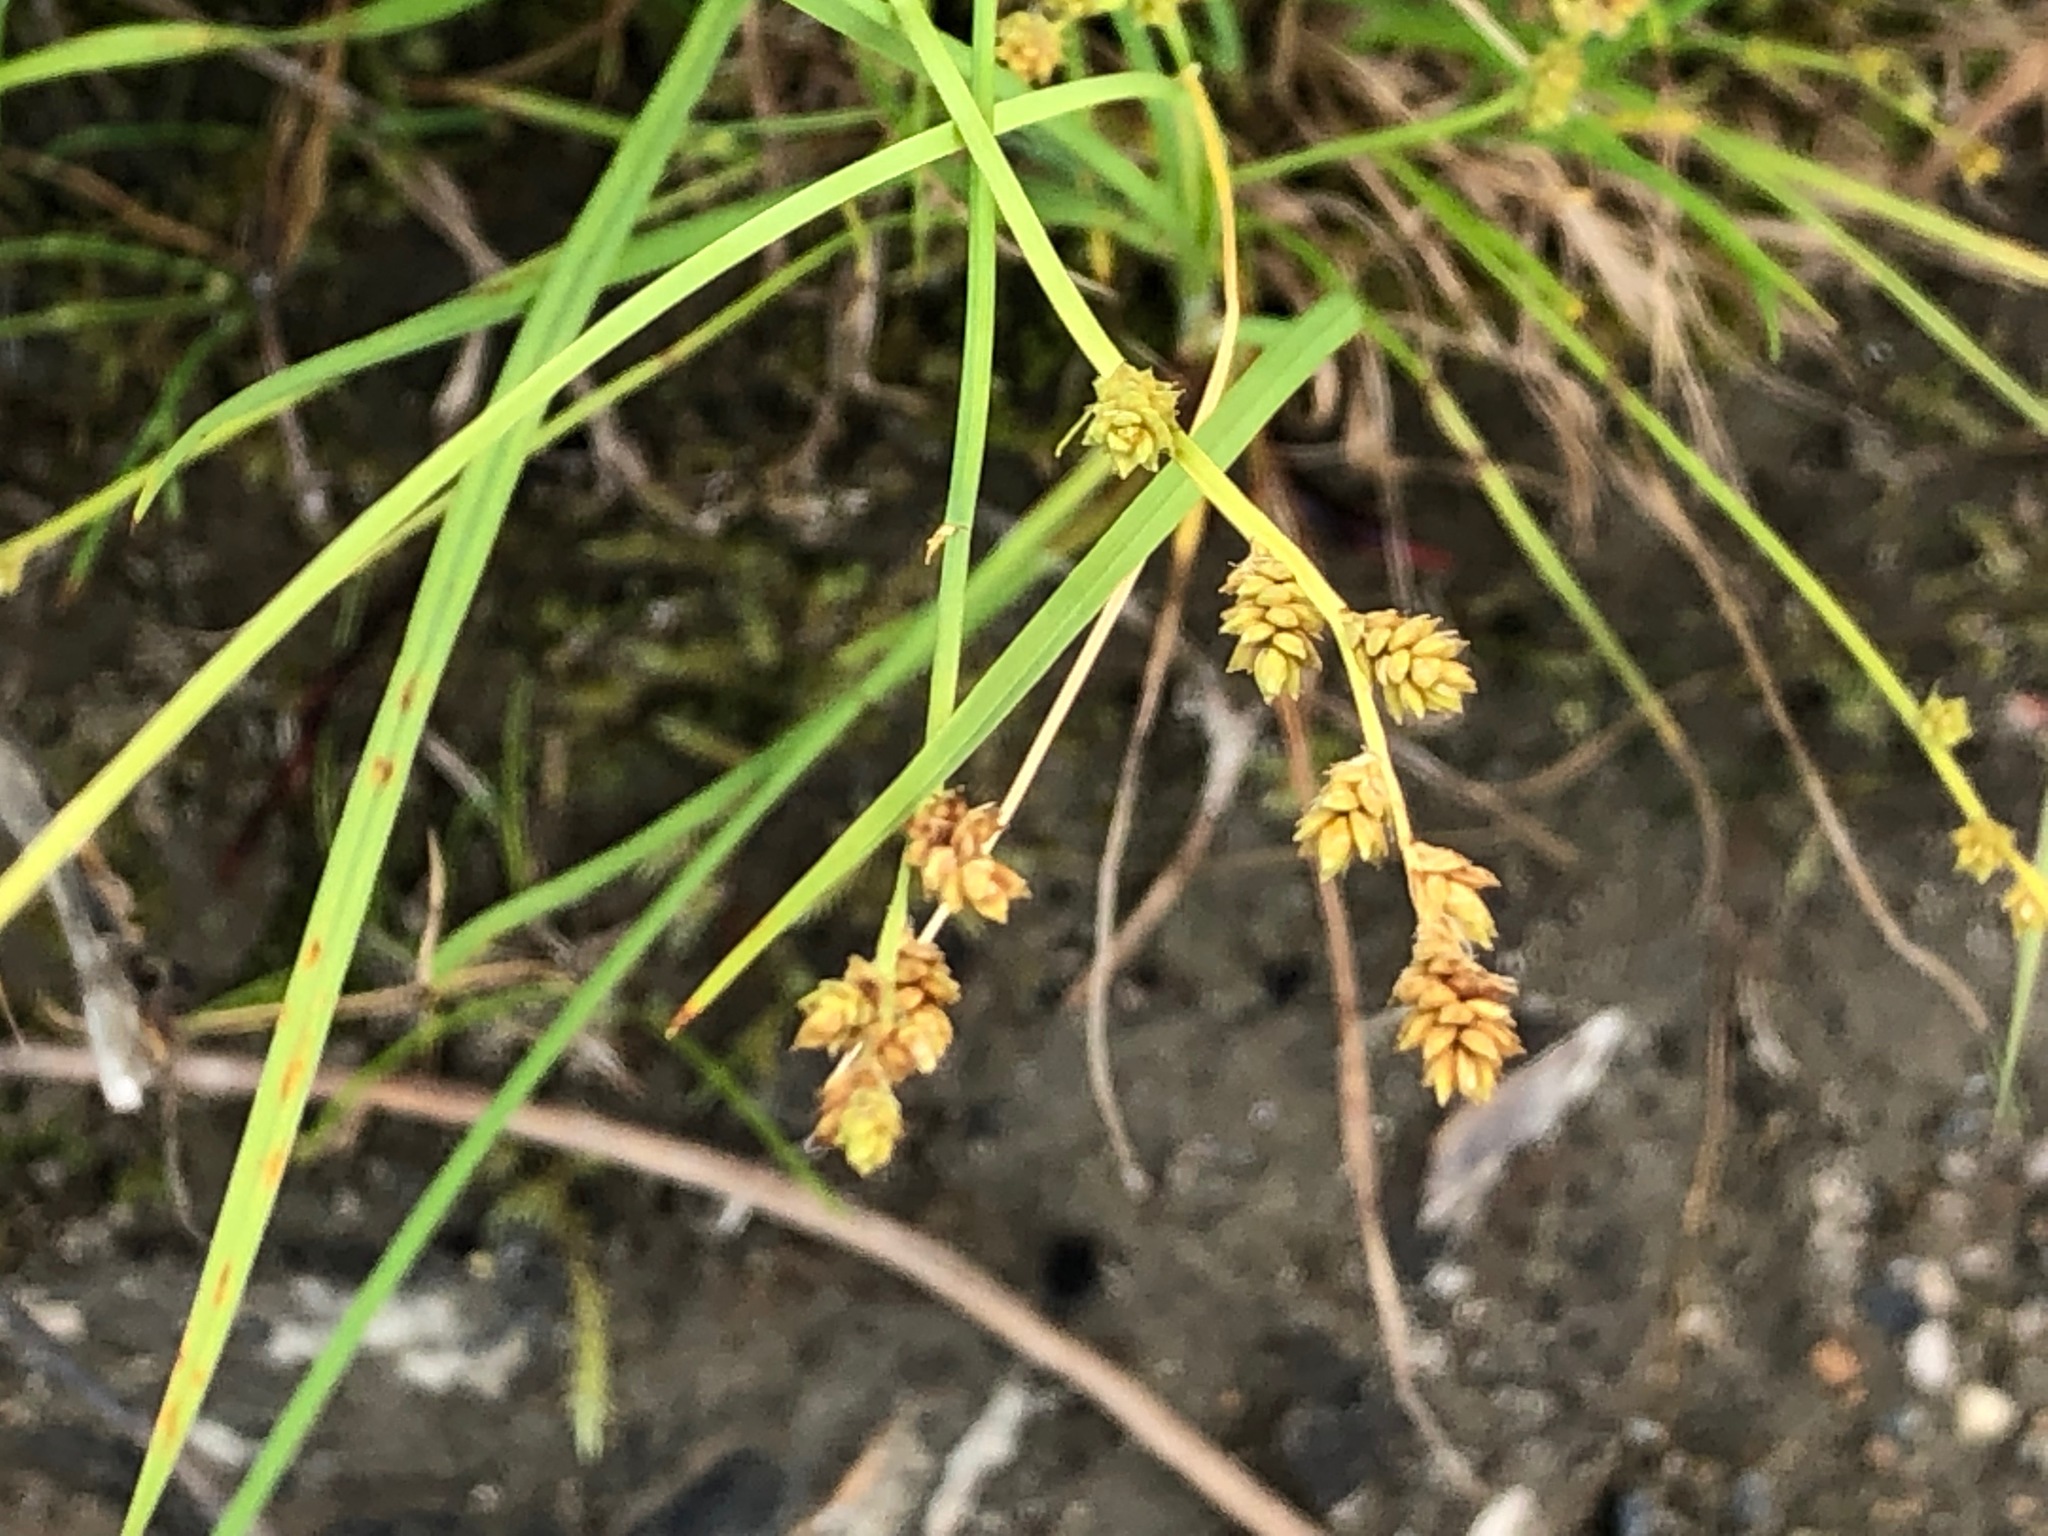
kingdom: Plantae
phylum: Tracheophyta
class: Liliopsida
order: Poales
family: Cyperaceae
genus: Carex
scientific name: Carex canescens
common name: White sedge
